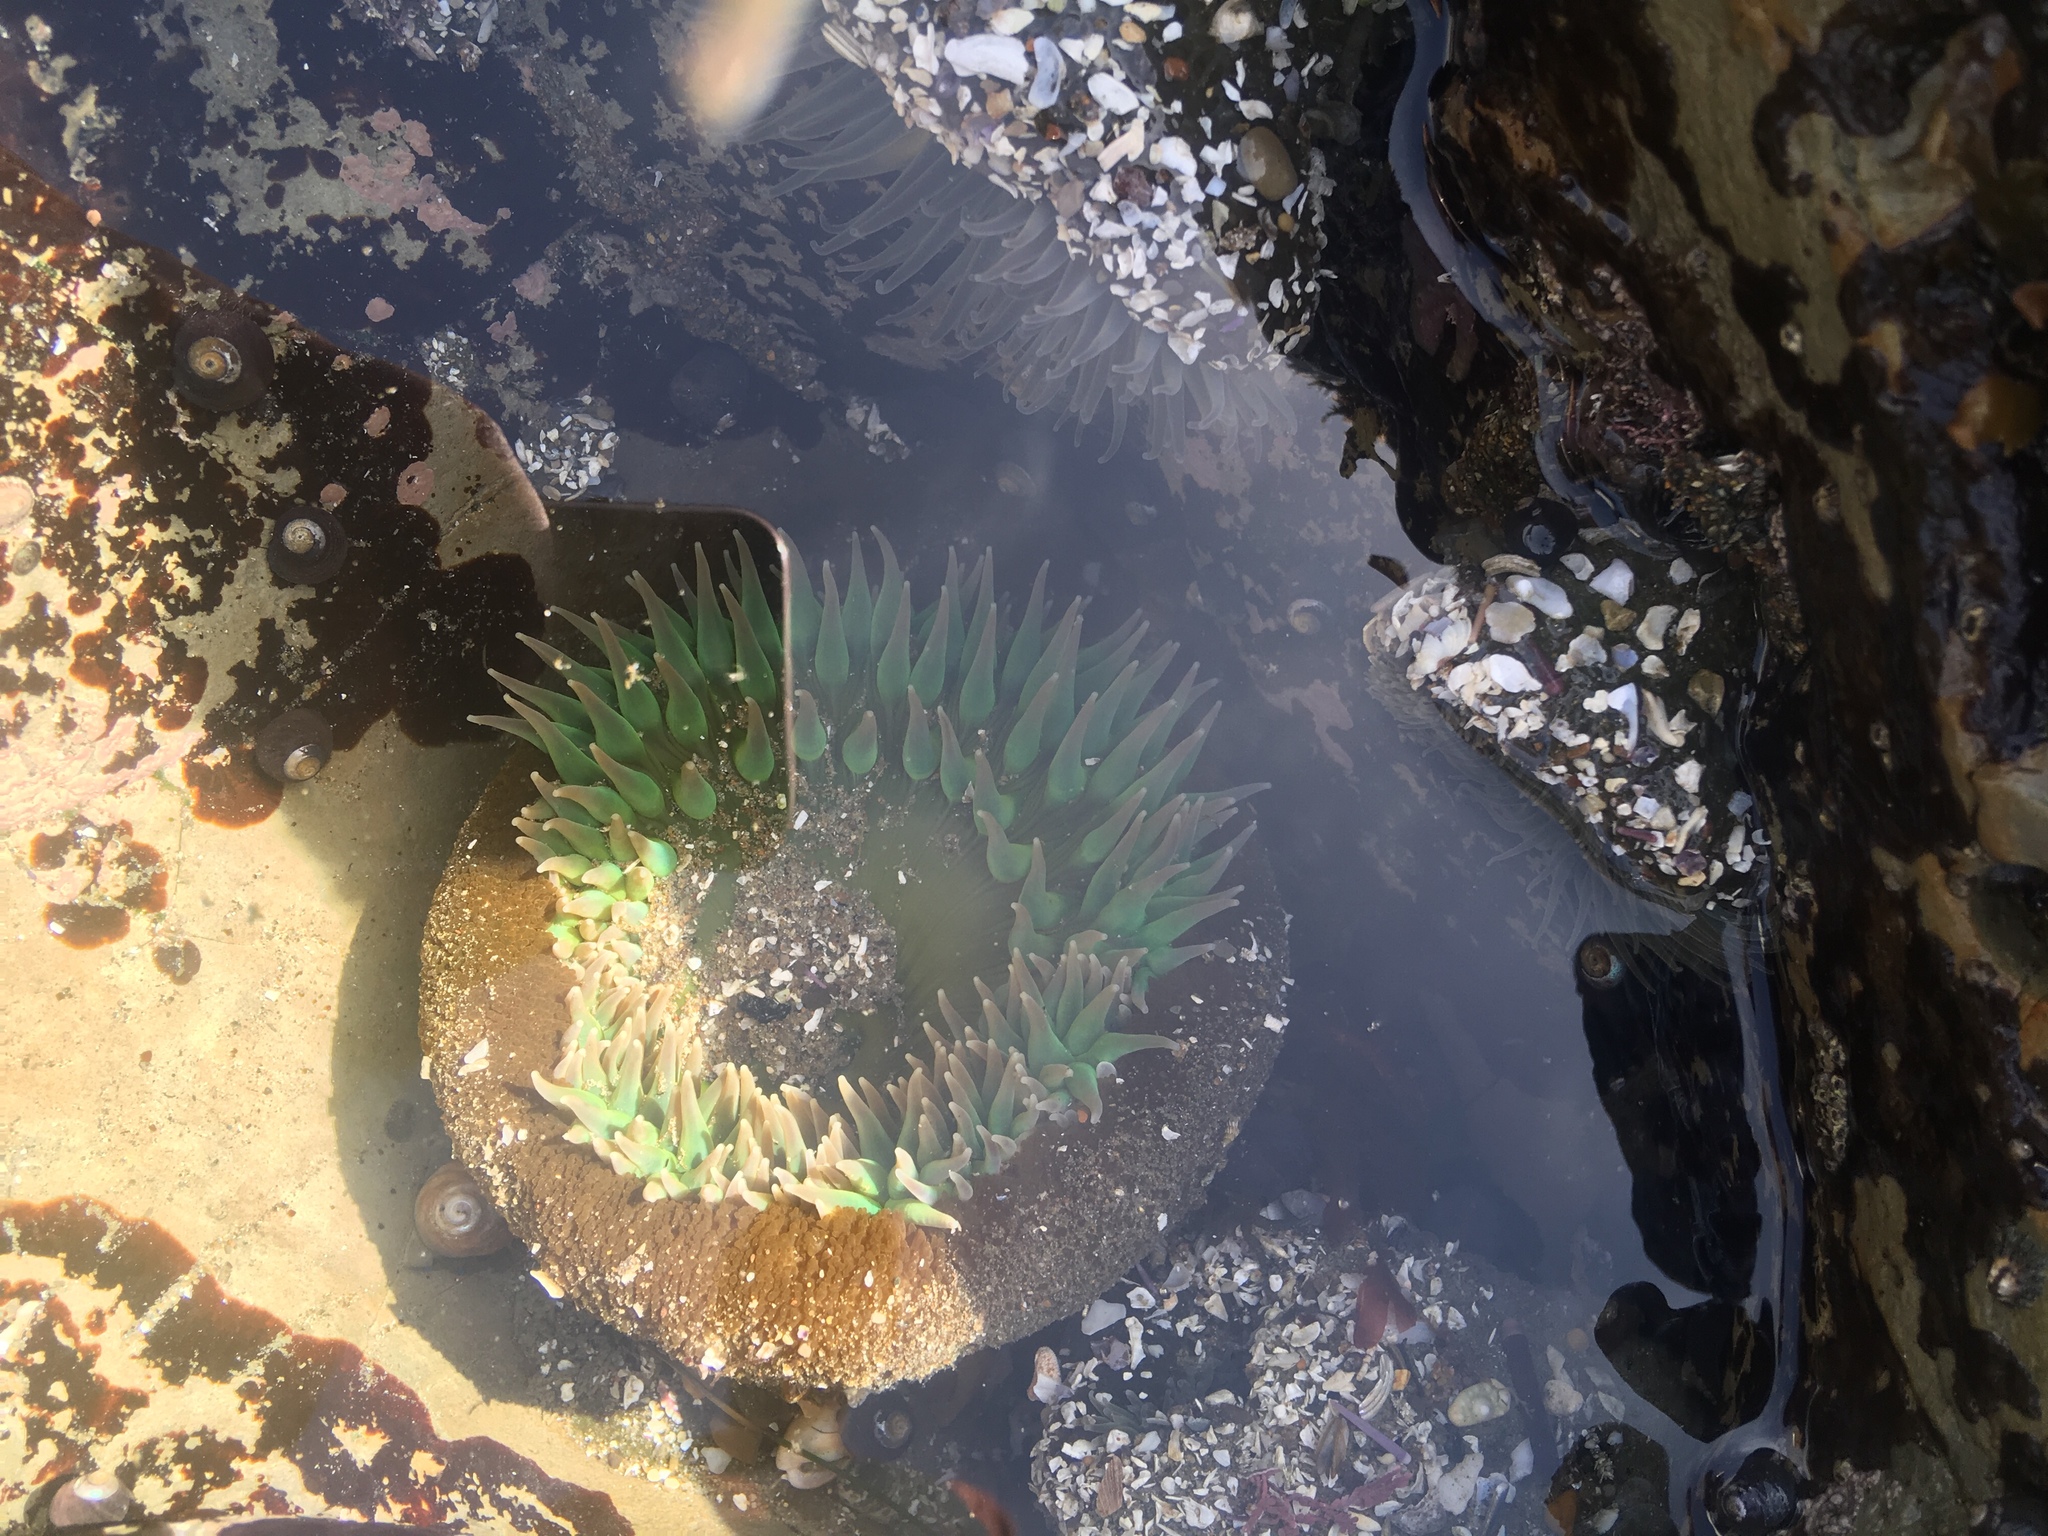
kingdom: Animalia
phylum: Cnidaria
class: Anthozoa
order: Actiniaria
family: Actiniidae
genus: Anthopleura
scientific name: Anthopleura xanthogrammica
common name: Giant green anemone
